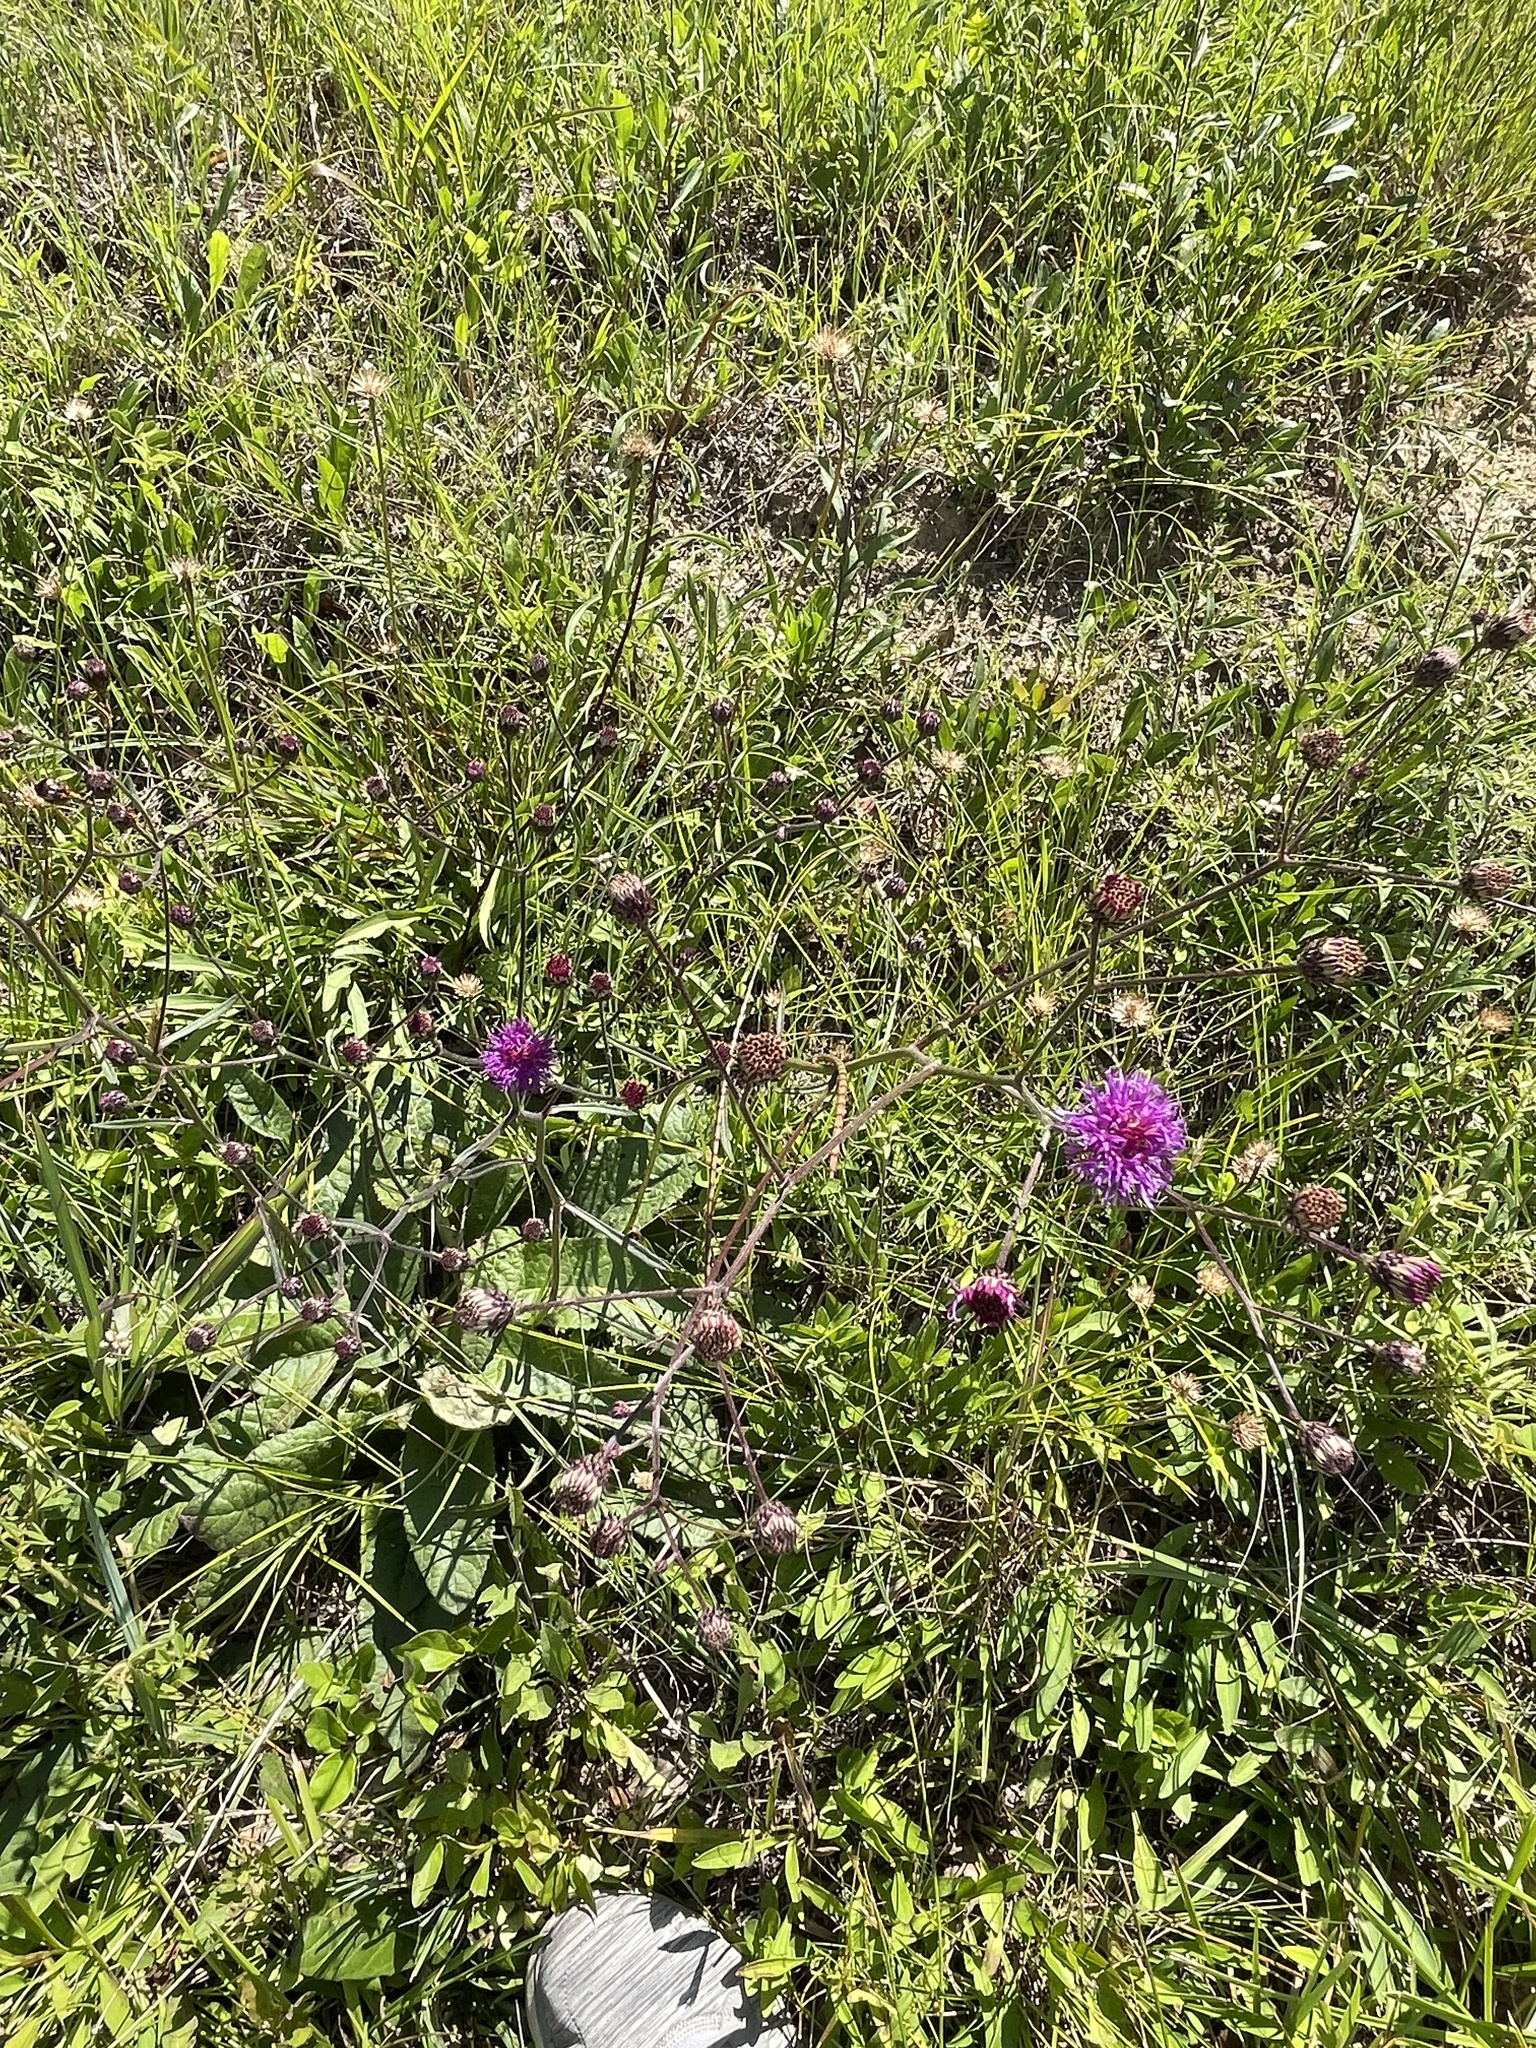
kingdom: Plantae
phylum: Tracheophyta
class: Magnoliopsida
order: Asterales
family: Asteraceae
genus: Vernonia
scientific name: Vernonia acaulis
